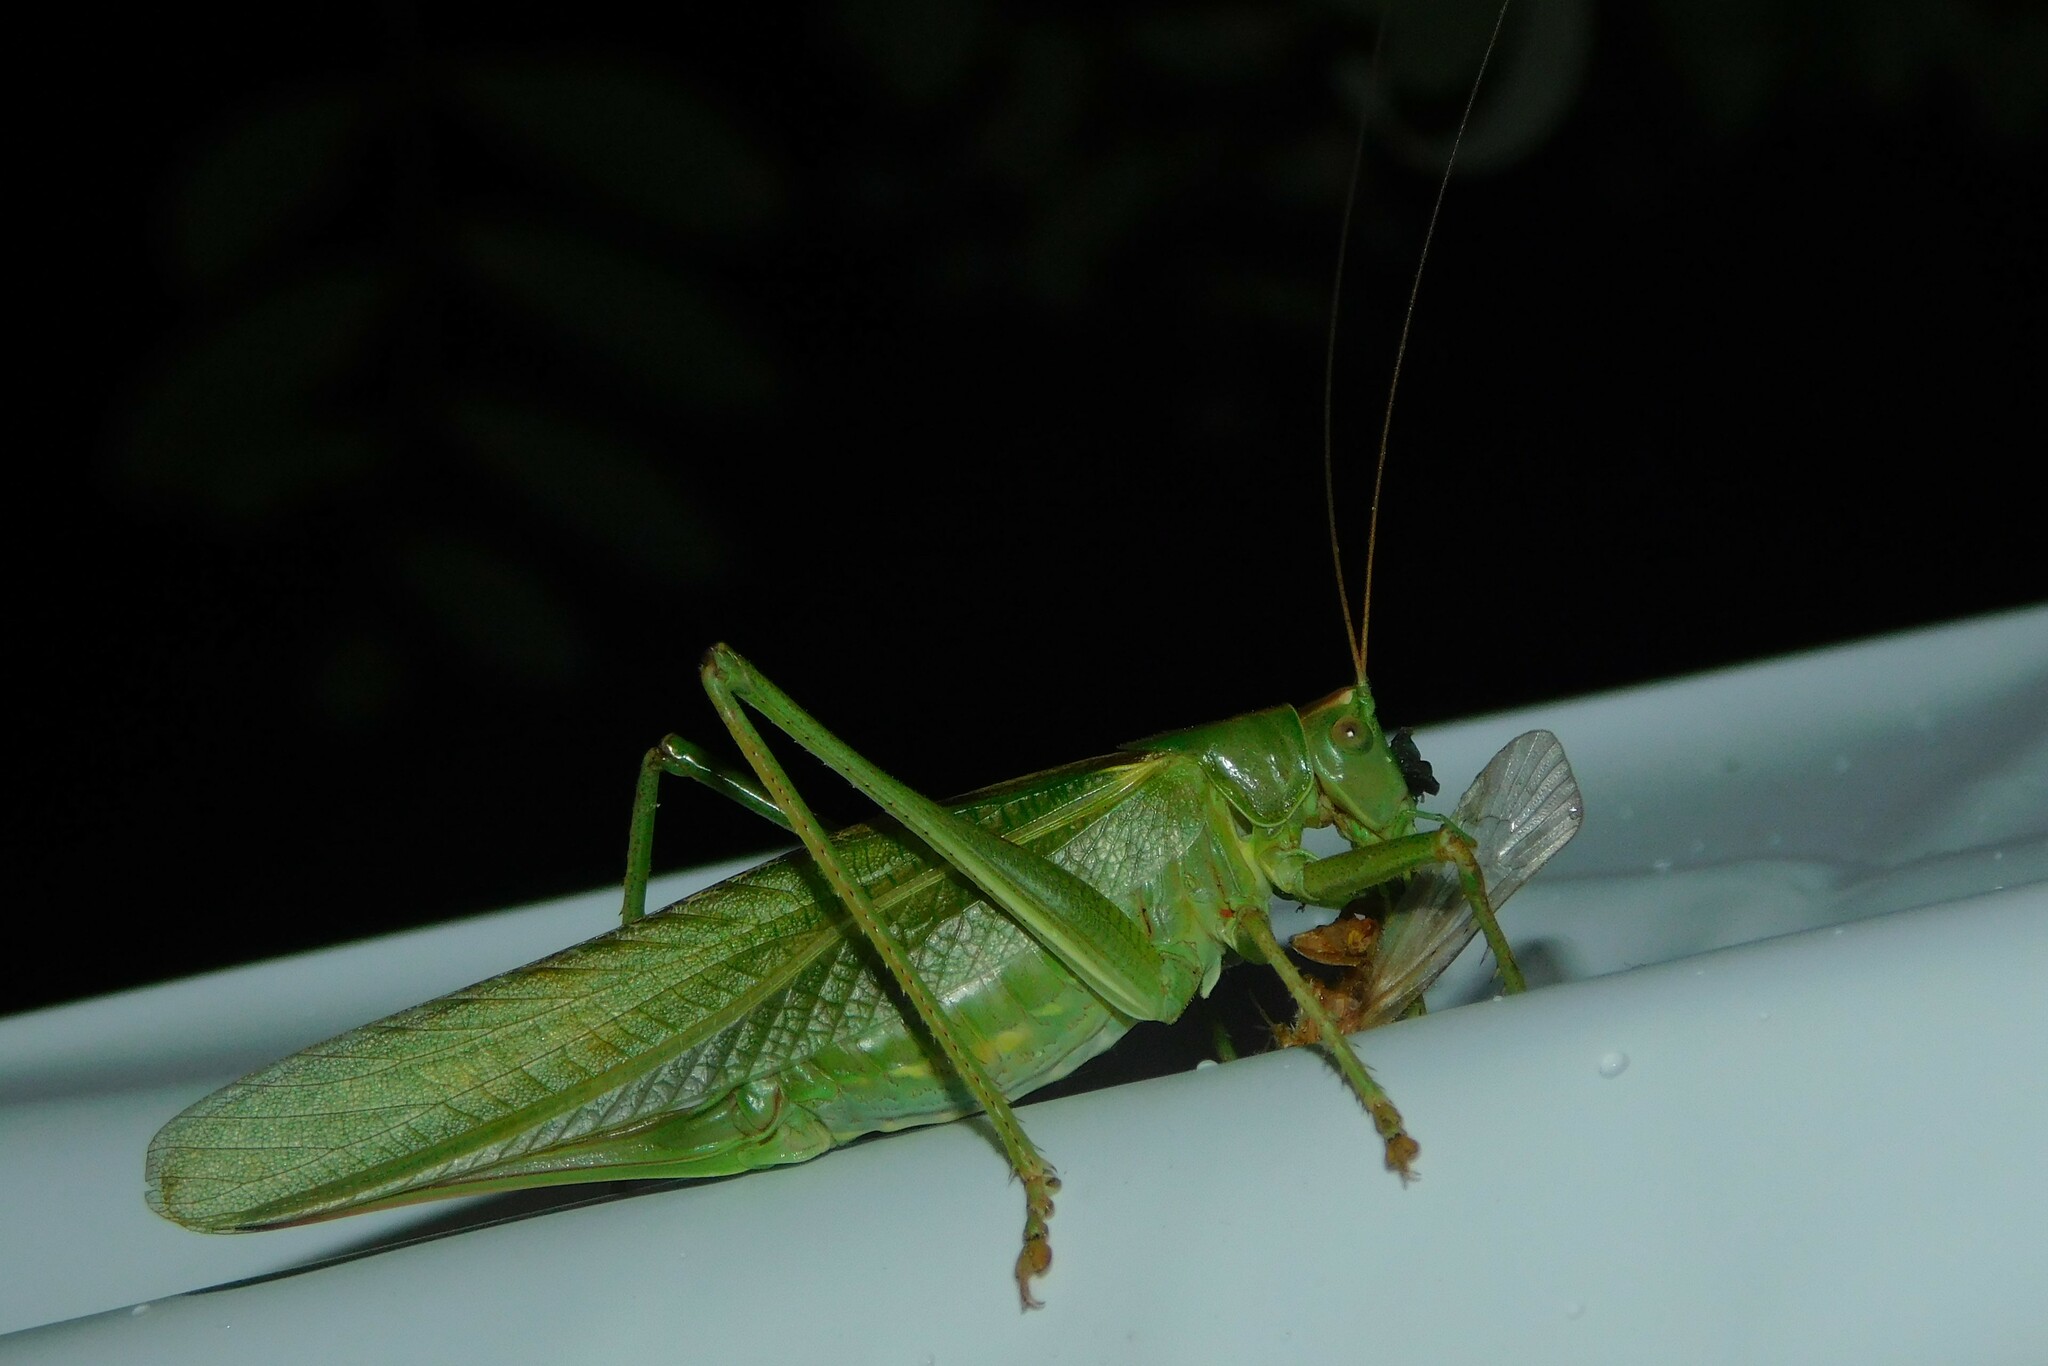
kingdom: Animalia
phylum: Arthropoda
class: Insecta
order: Orthoptera
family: Tettigoniidae
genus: Tettigonia
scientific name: Tettigonia viridissima
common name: Great green bush-cricket
